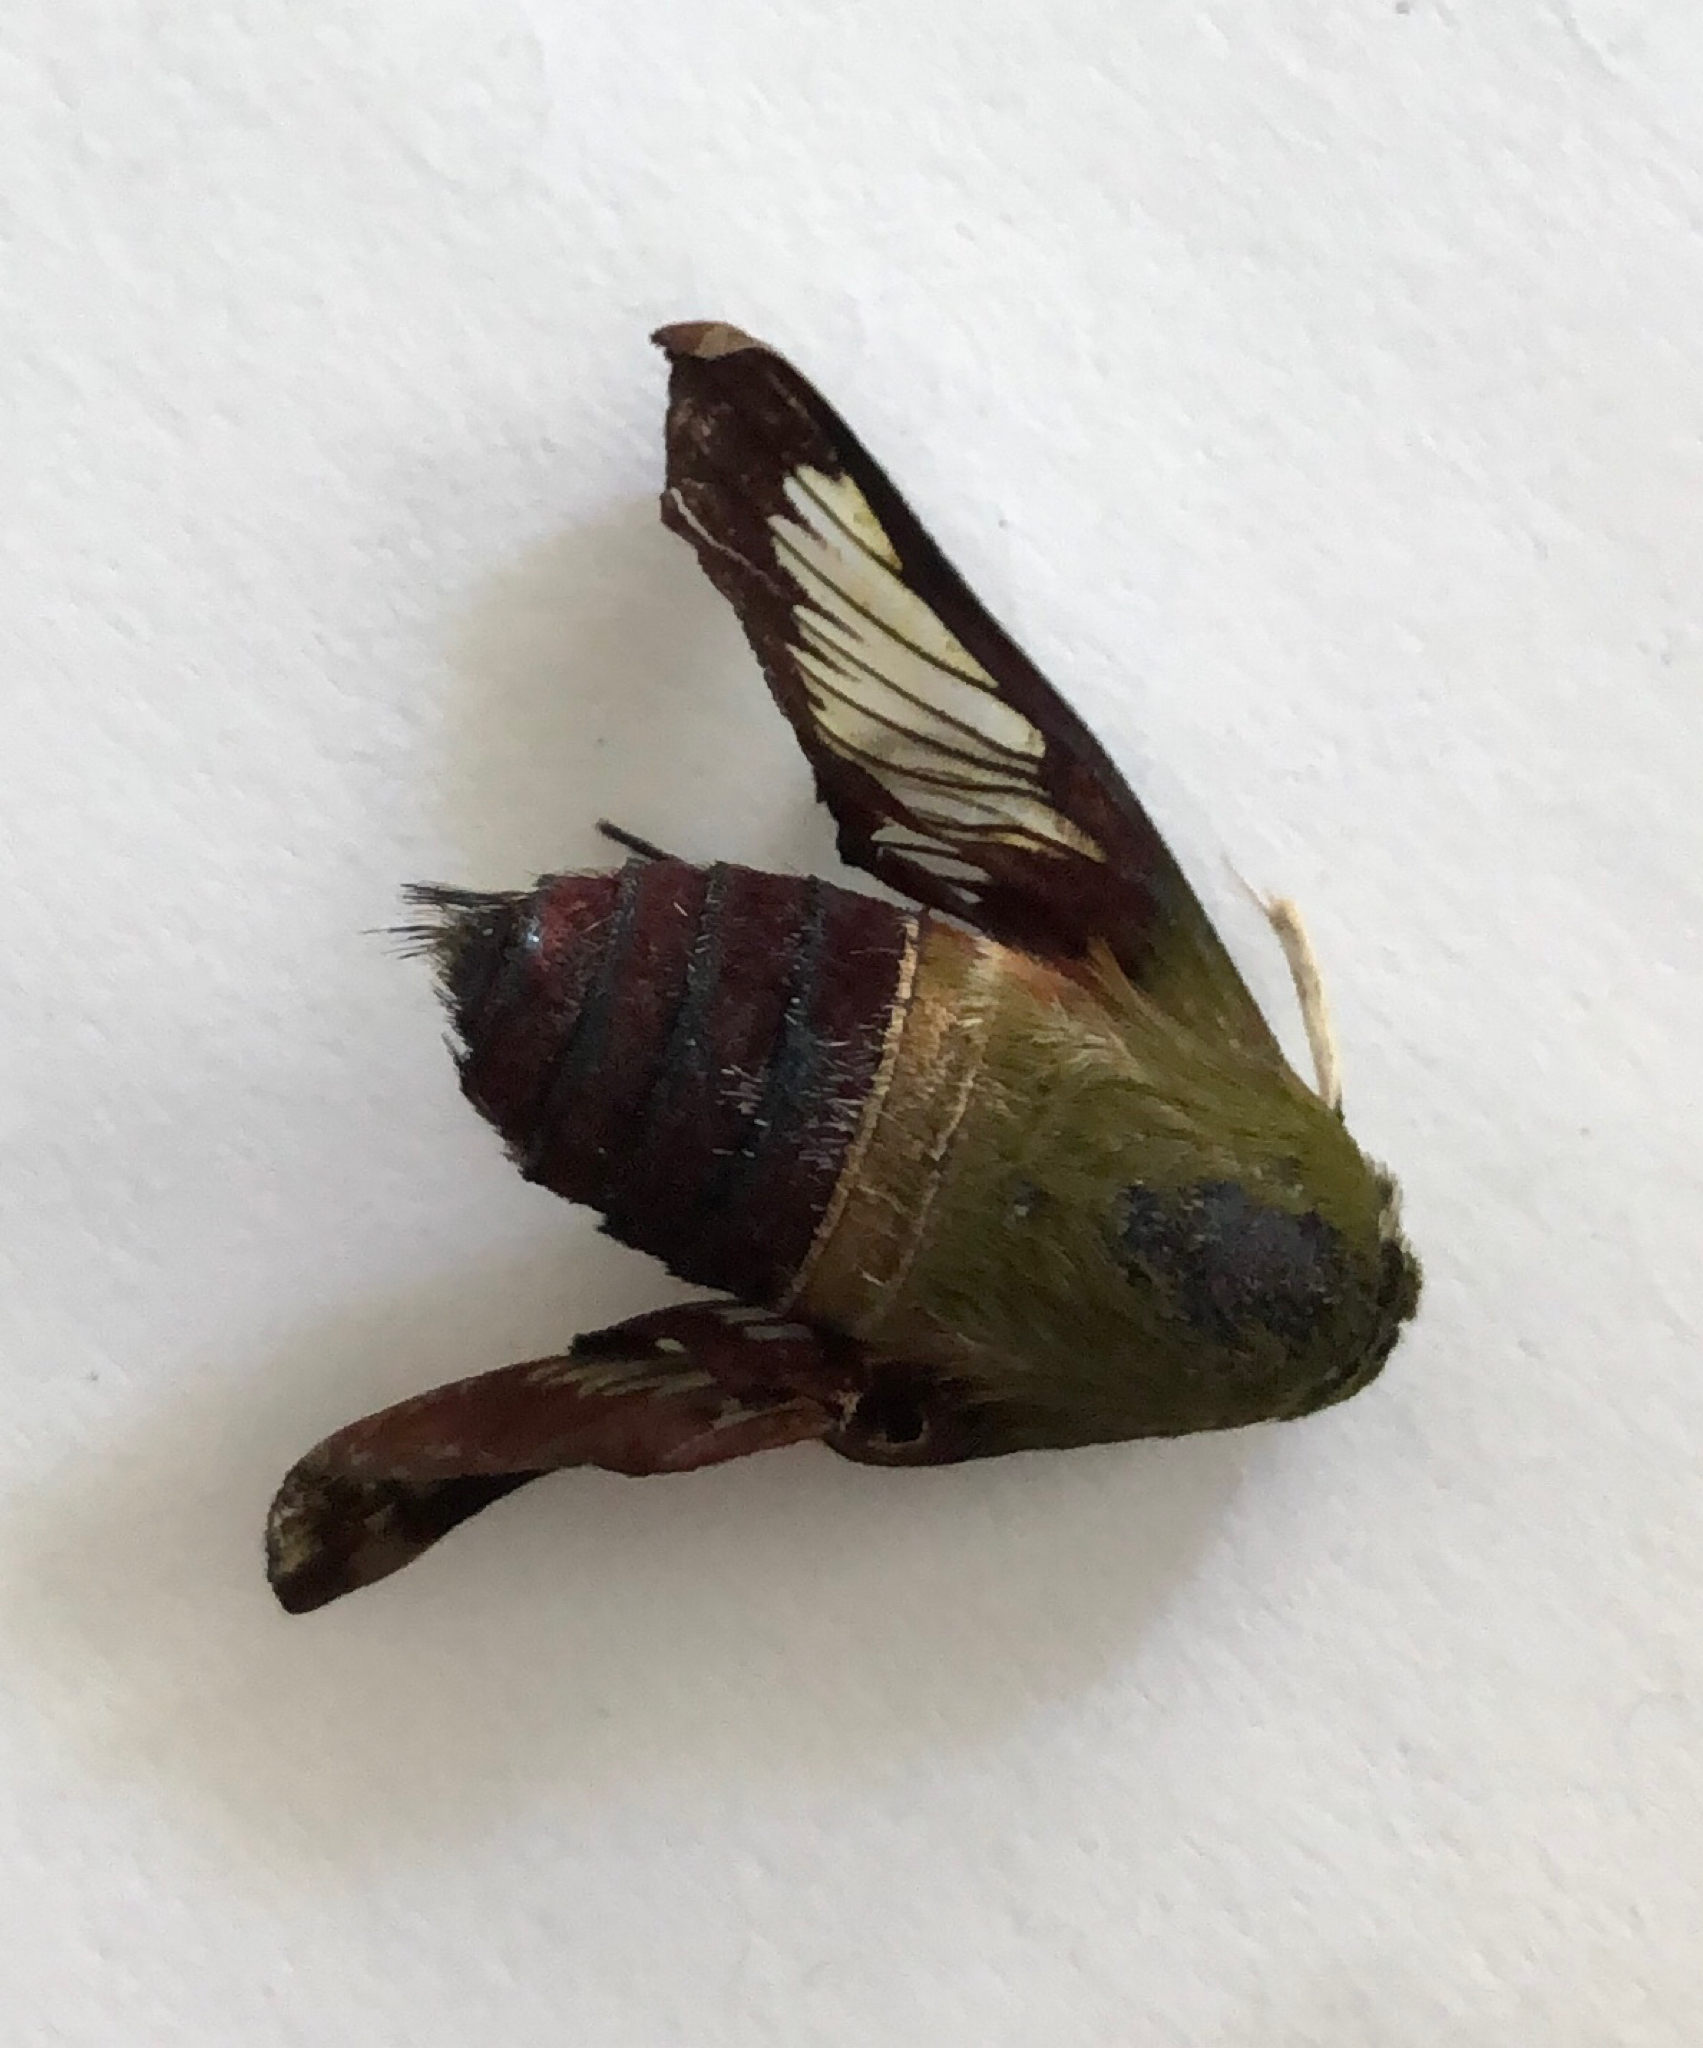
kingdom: Animalia
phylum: Arthropoda
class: Insecta
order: Lepidoptera
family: Sphingidae
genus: Hemaris
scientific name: Hemaris thysbe
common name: Common clear-wing
